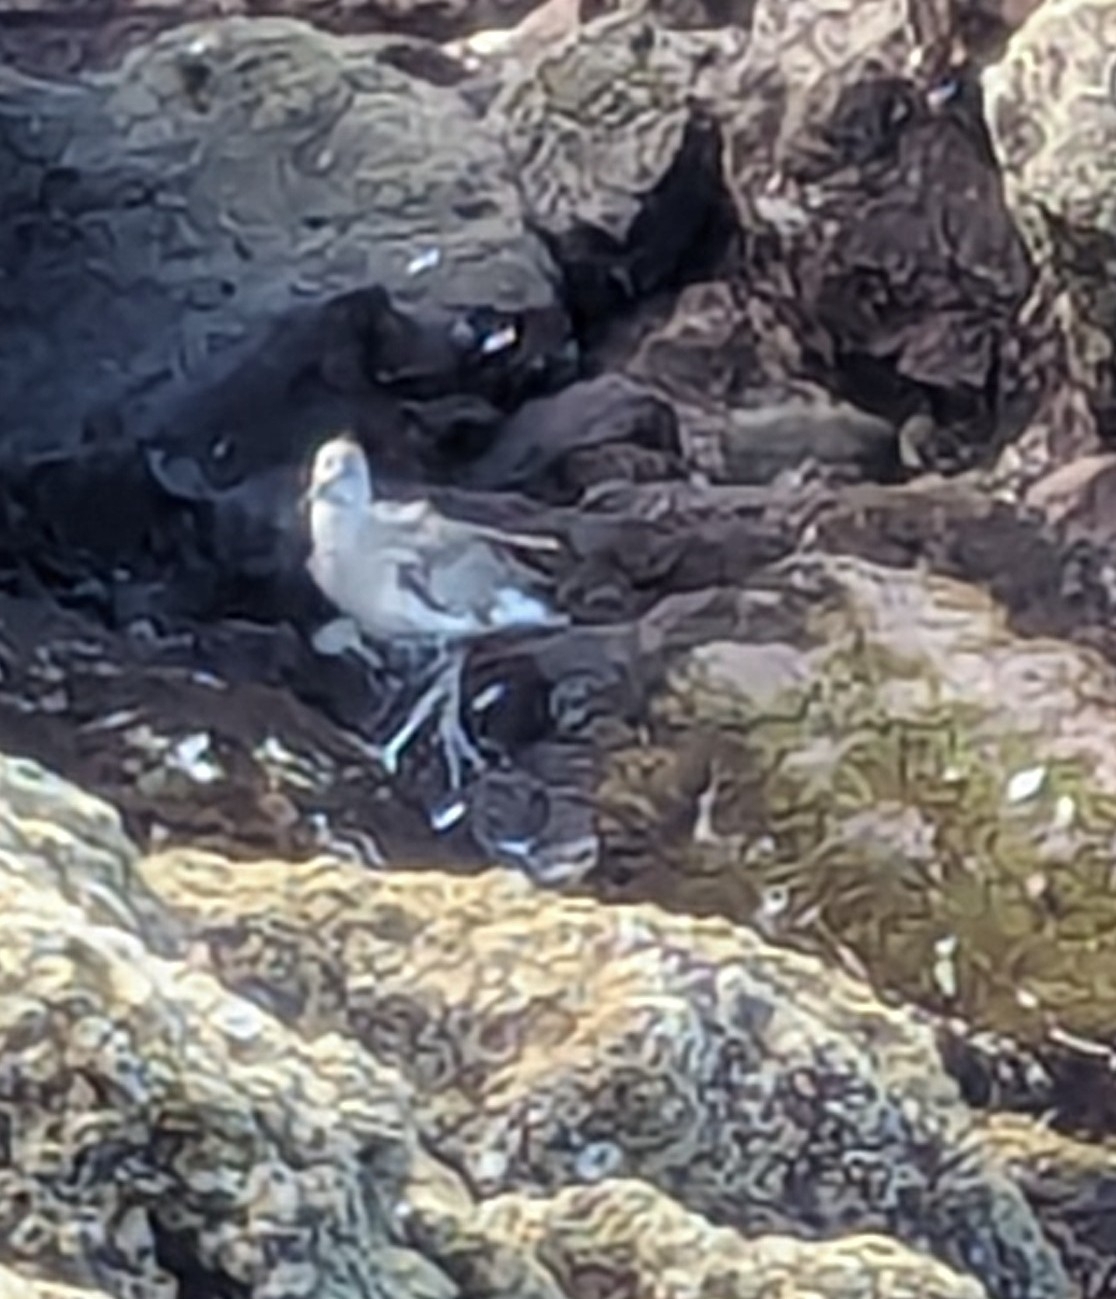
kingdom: Animalia
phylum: Chordata
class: Aves
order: Charadriiformes
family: Scolopacidae
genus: Tringa
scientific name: Tringa semipalmata
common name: Willet
